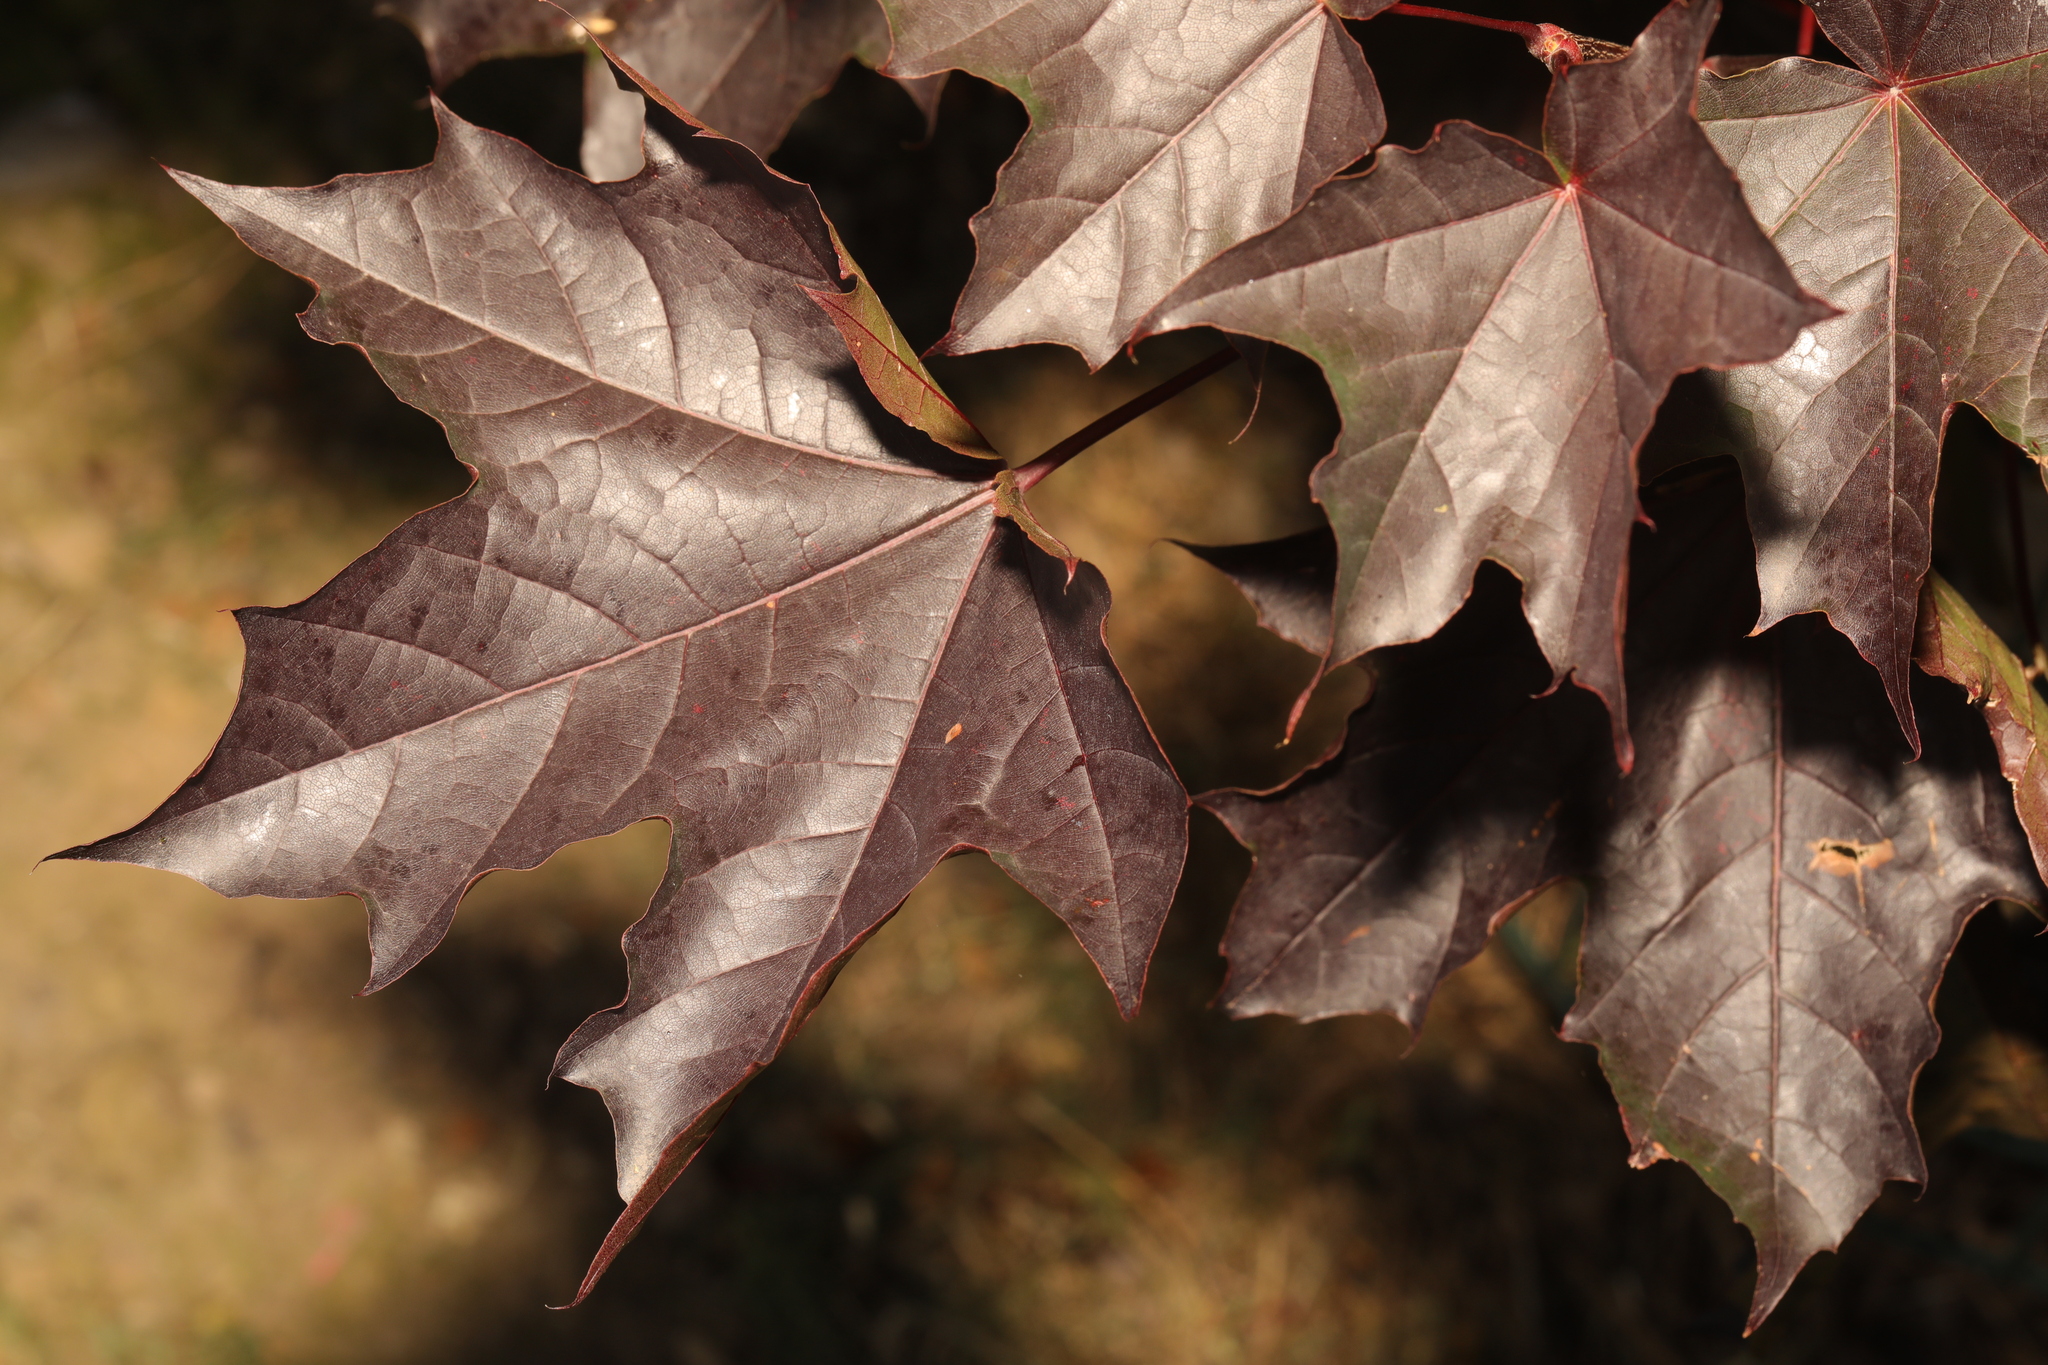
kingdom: Plantae
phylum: Tracheophyta
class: Magnoliopsida
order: Sapindales
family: Sapindaceae
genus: Acer
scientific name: Acer platanoides
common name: Norway maple
